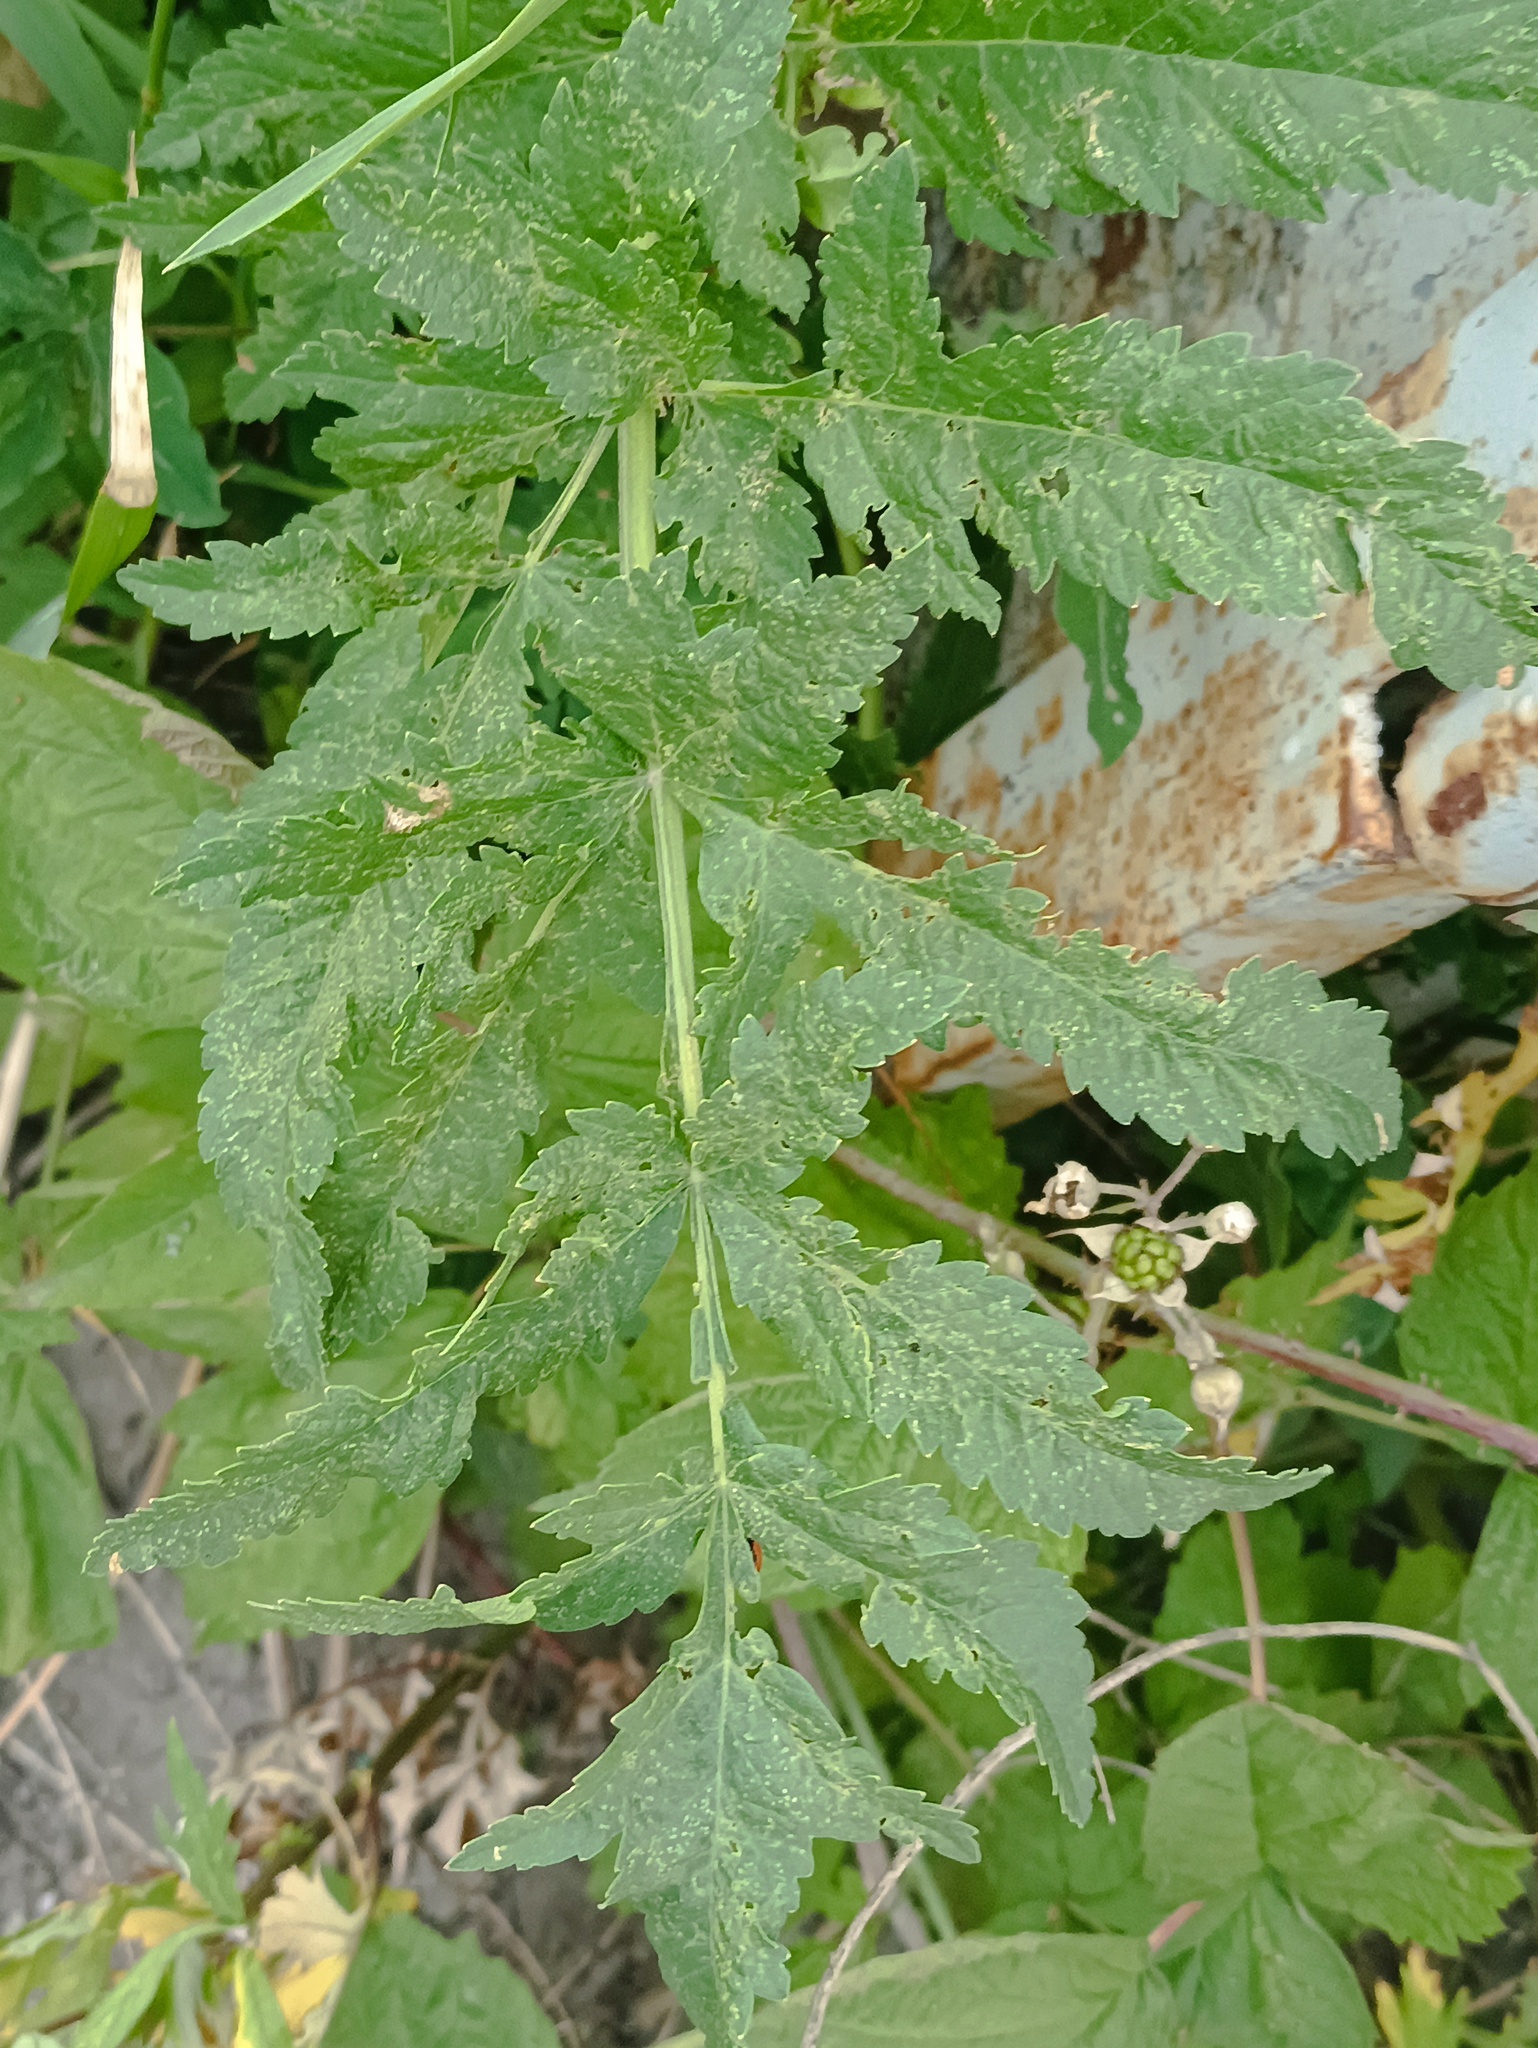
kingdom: Plantae
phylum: Tracheophyta
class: Magnoliopsida
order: Apiales
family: Apiaceae
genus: Pastinaca
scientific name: Pastinaca sativa
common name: Wild parsnip
